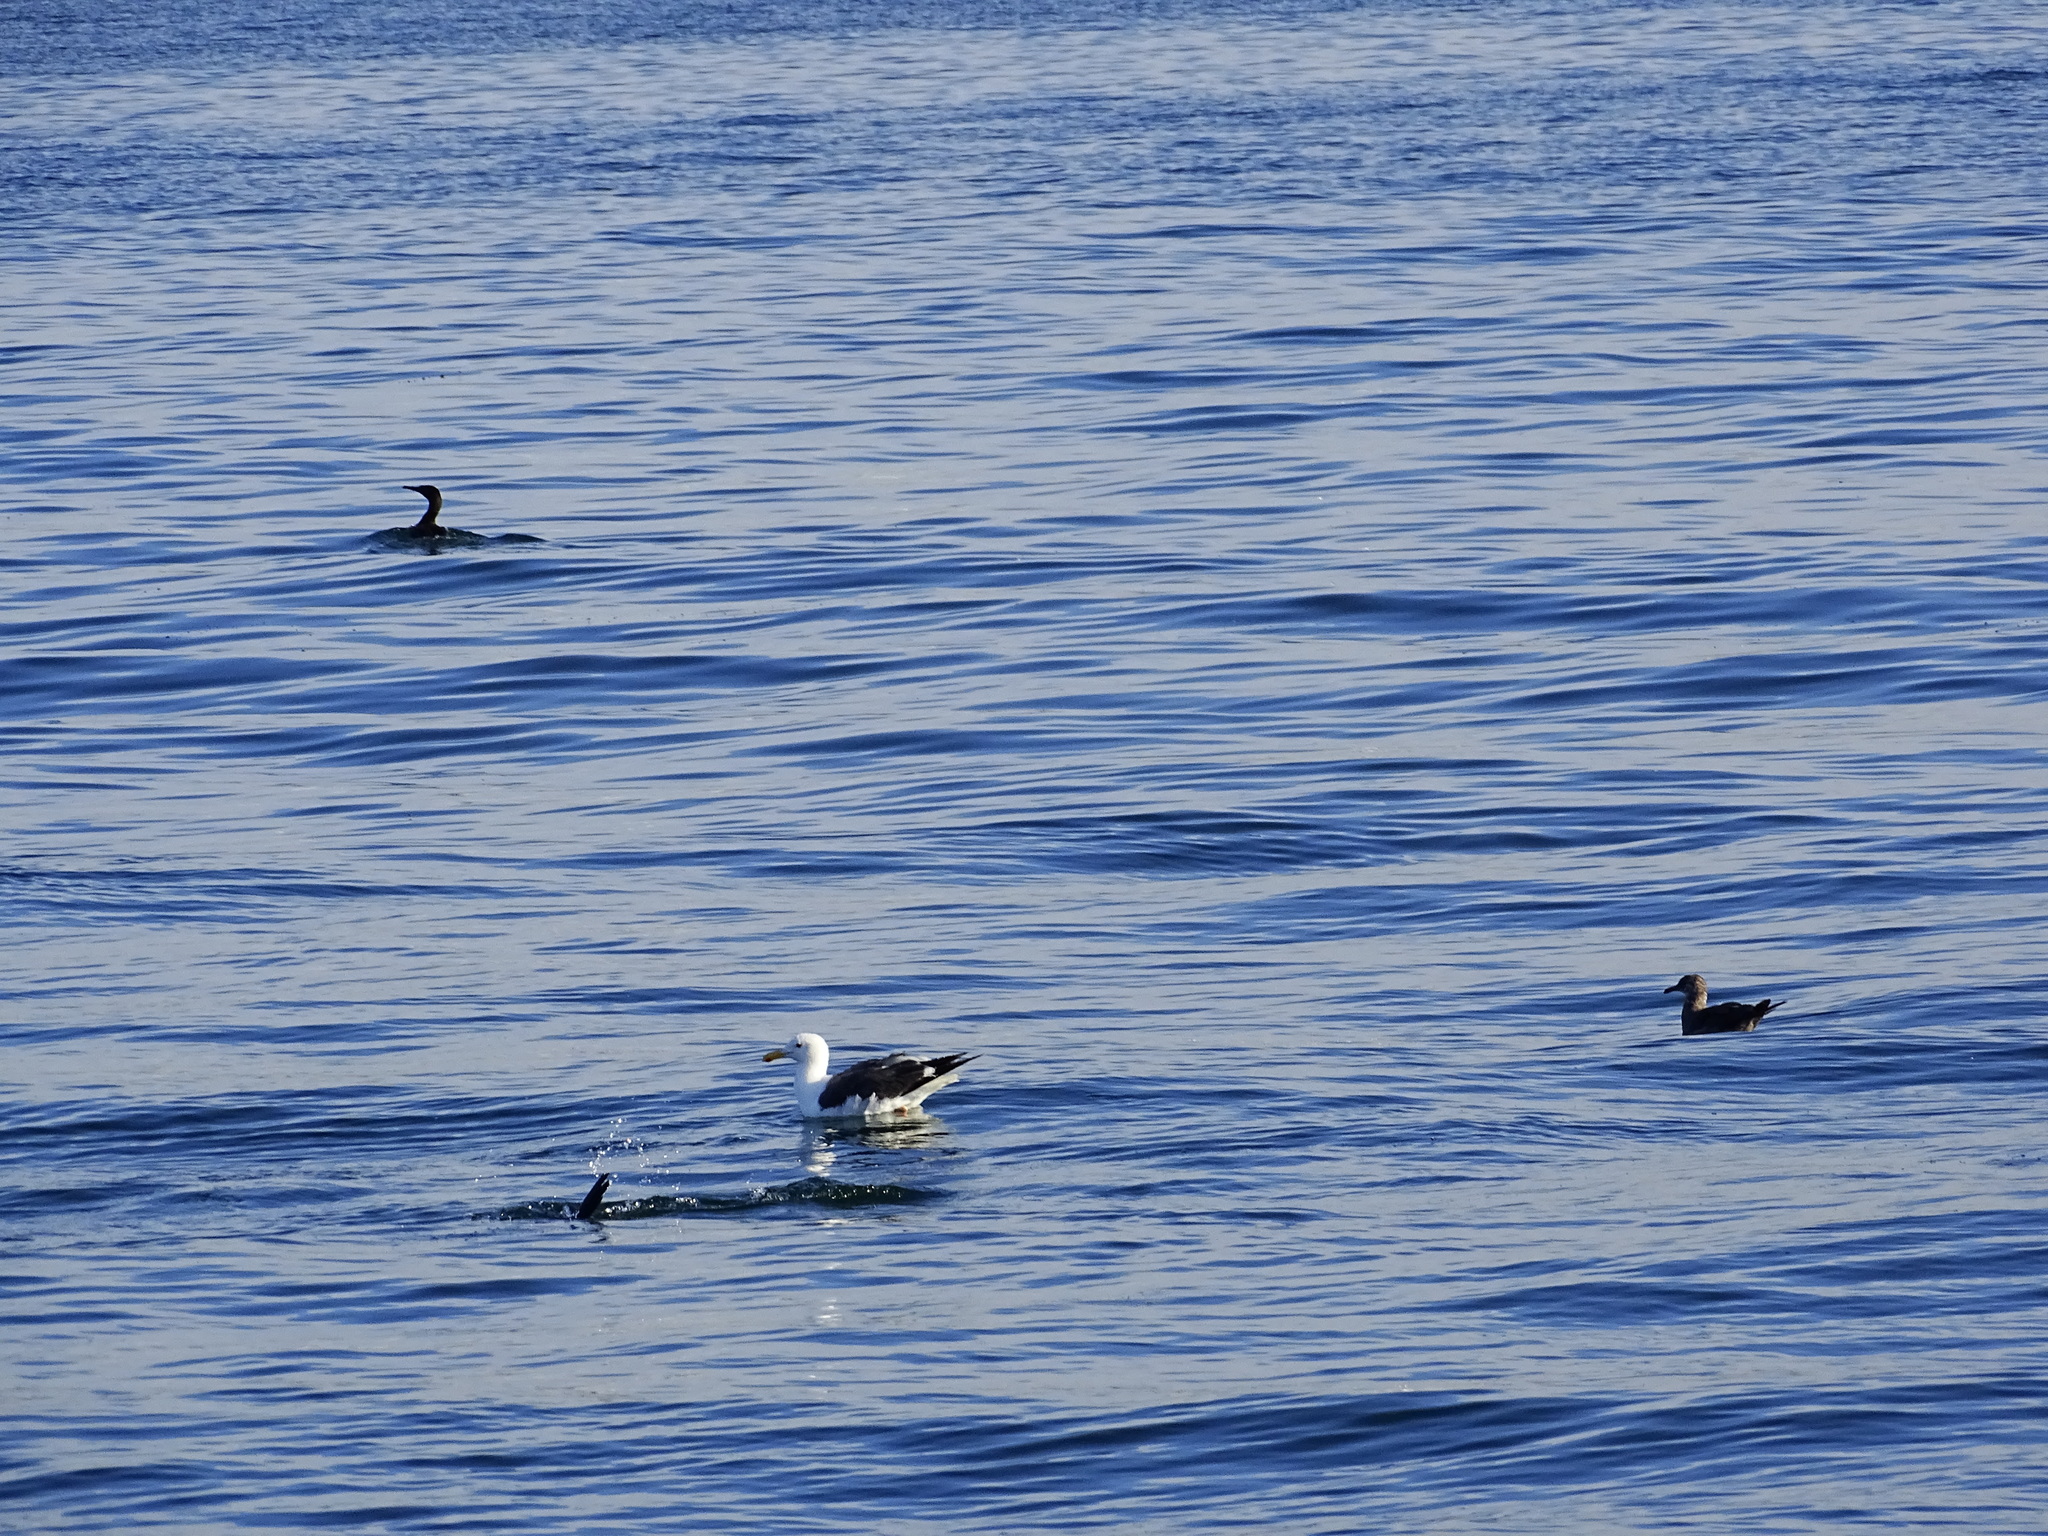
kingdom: Animalia
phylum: Chordata
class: Aves
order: Charadriiformes
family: Laridae
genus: Larus
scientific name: Larus occidentalis
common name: Western gull
